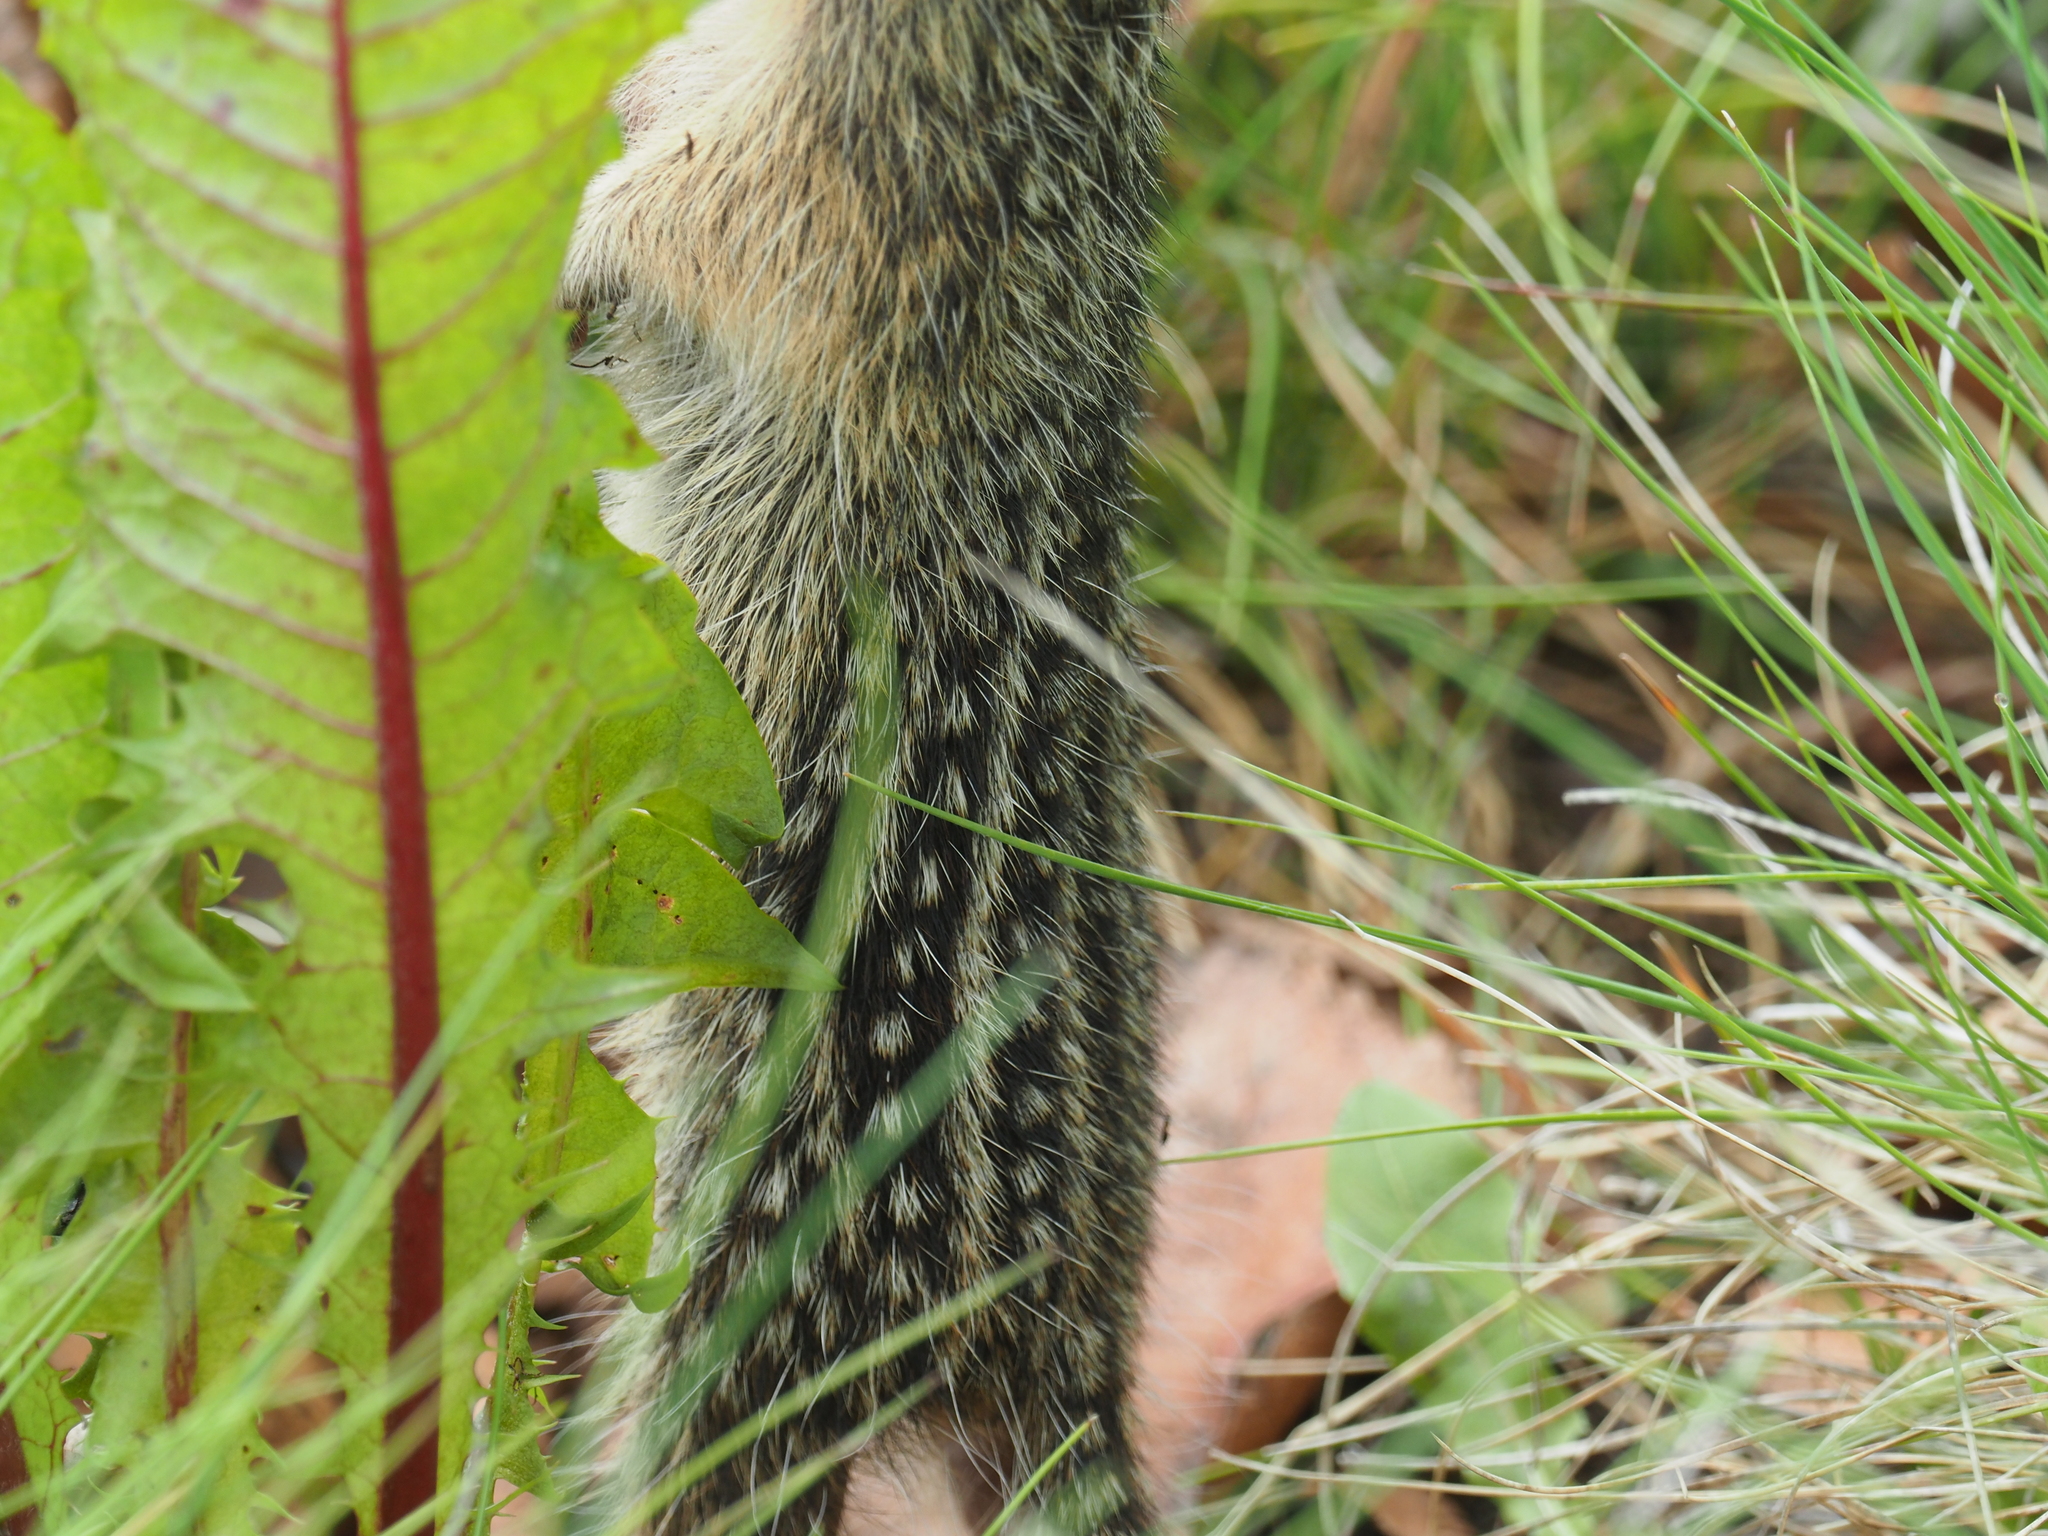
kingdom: Animalia
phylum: Chordata
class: Mammalia
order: Rodentia
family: Sciuridae
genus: Ictidomys
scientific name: Ictidomys tridecemlineatus
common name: Thirteen-lined ground squirrel
